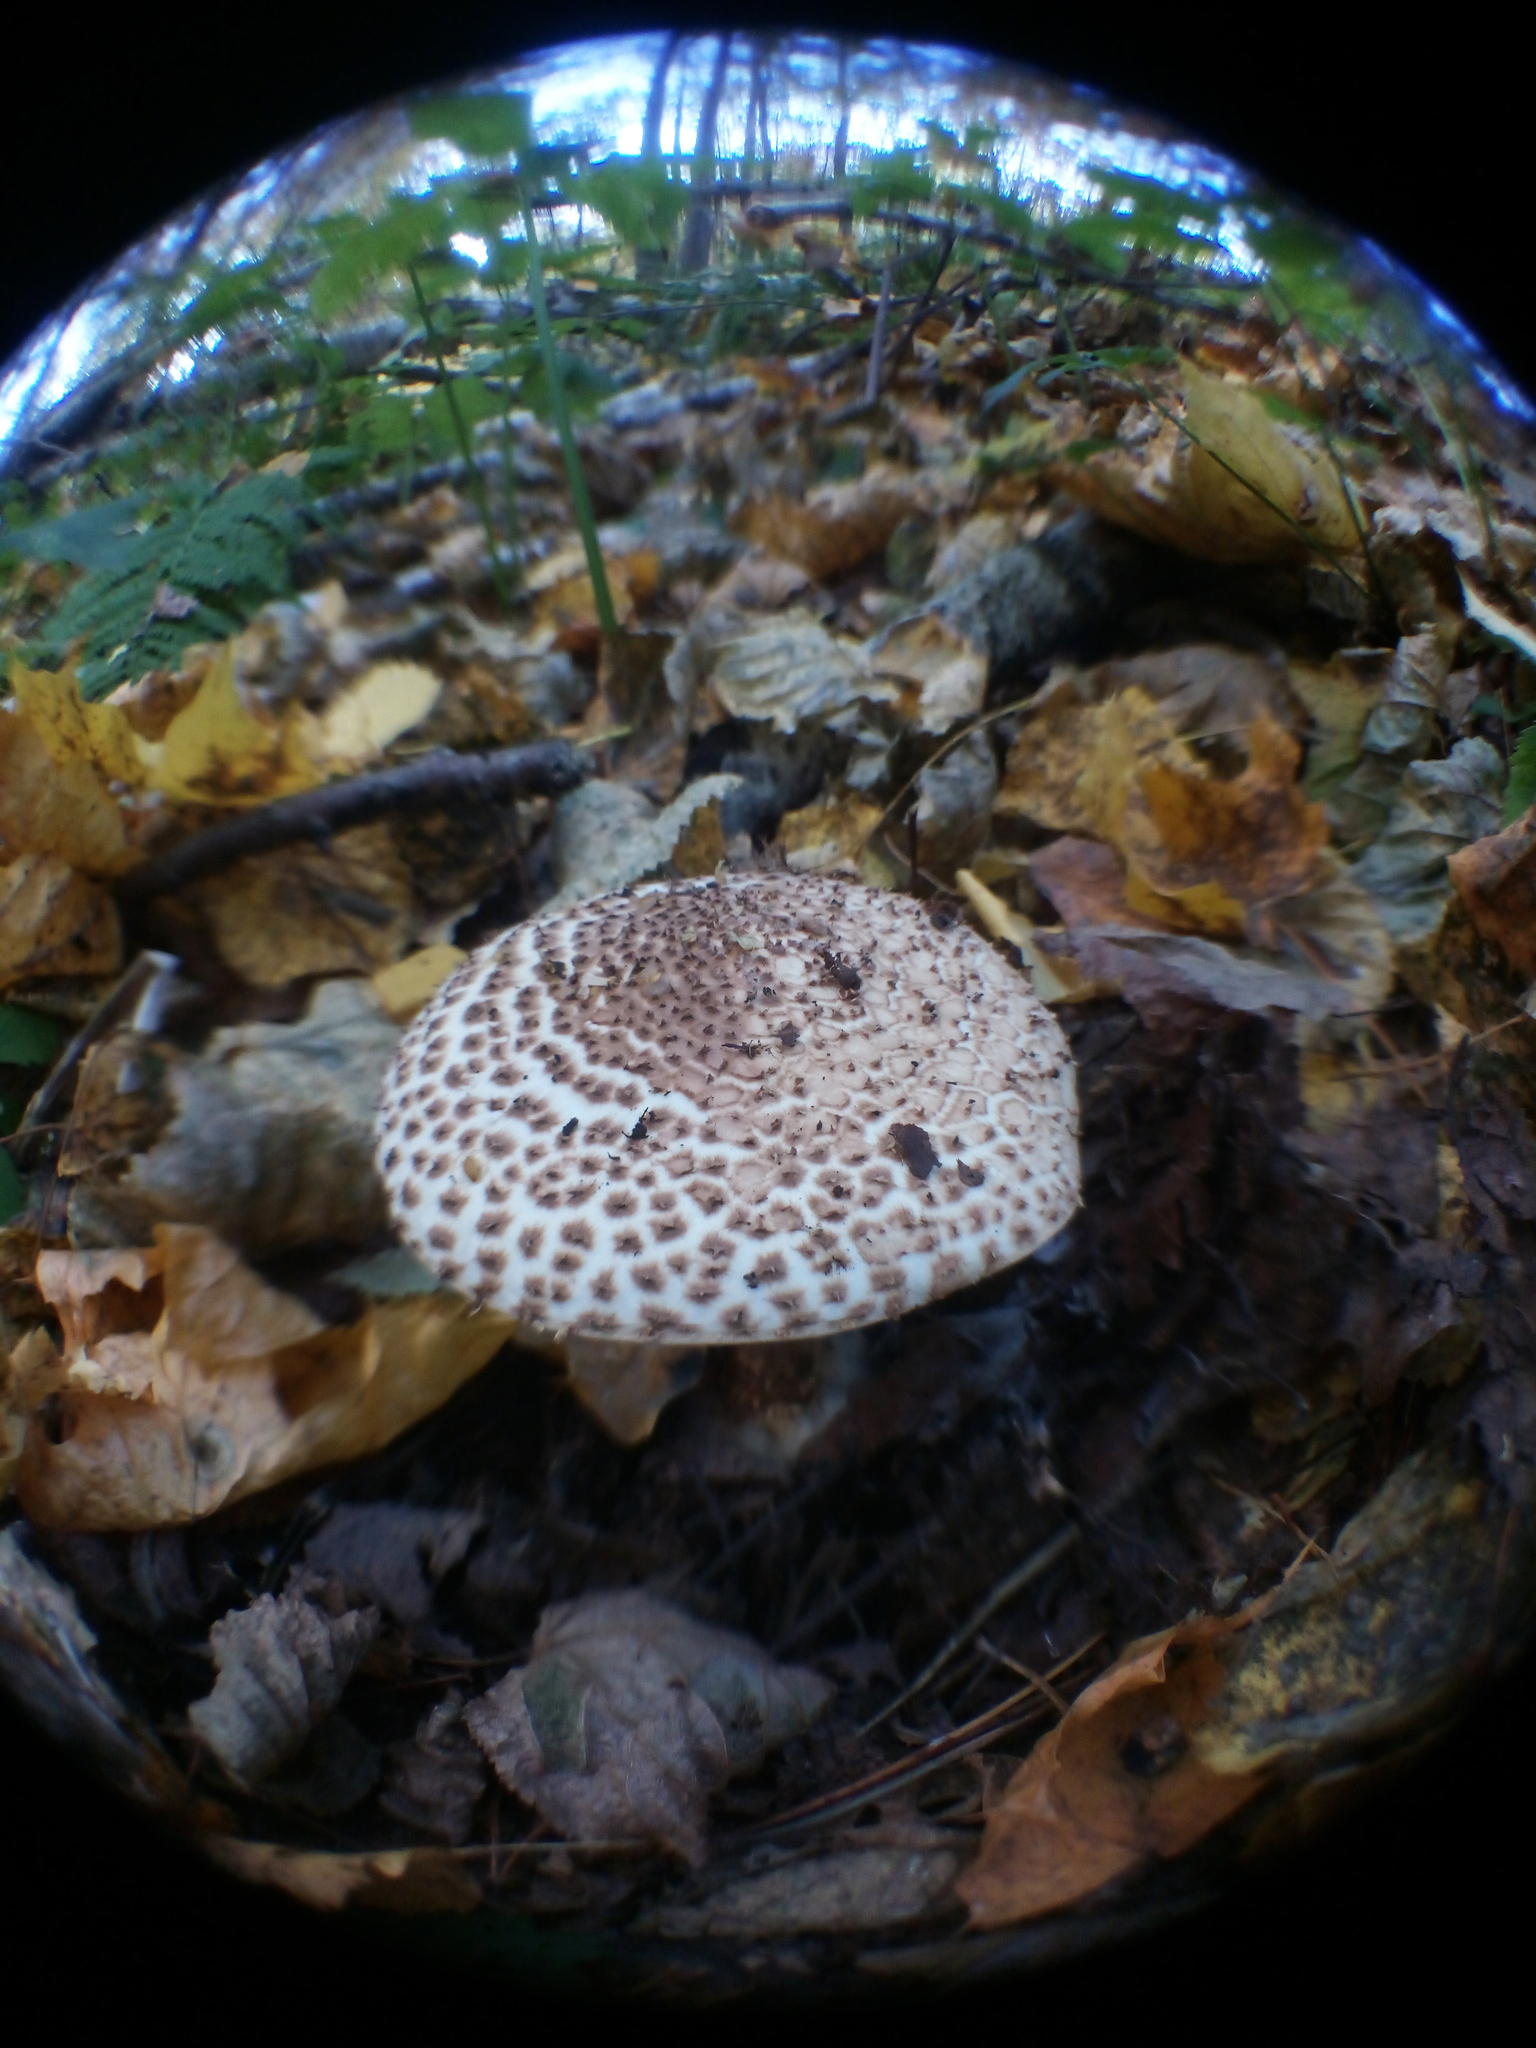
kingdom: Fungi
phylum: Basidiomycota
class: Agaricomycetes
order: Agaricales
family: Agaricaceae
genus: Echinoderma
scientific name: Echinoderma asperum
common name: Freckled dapperling
